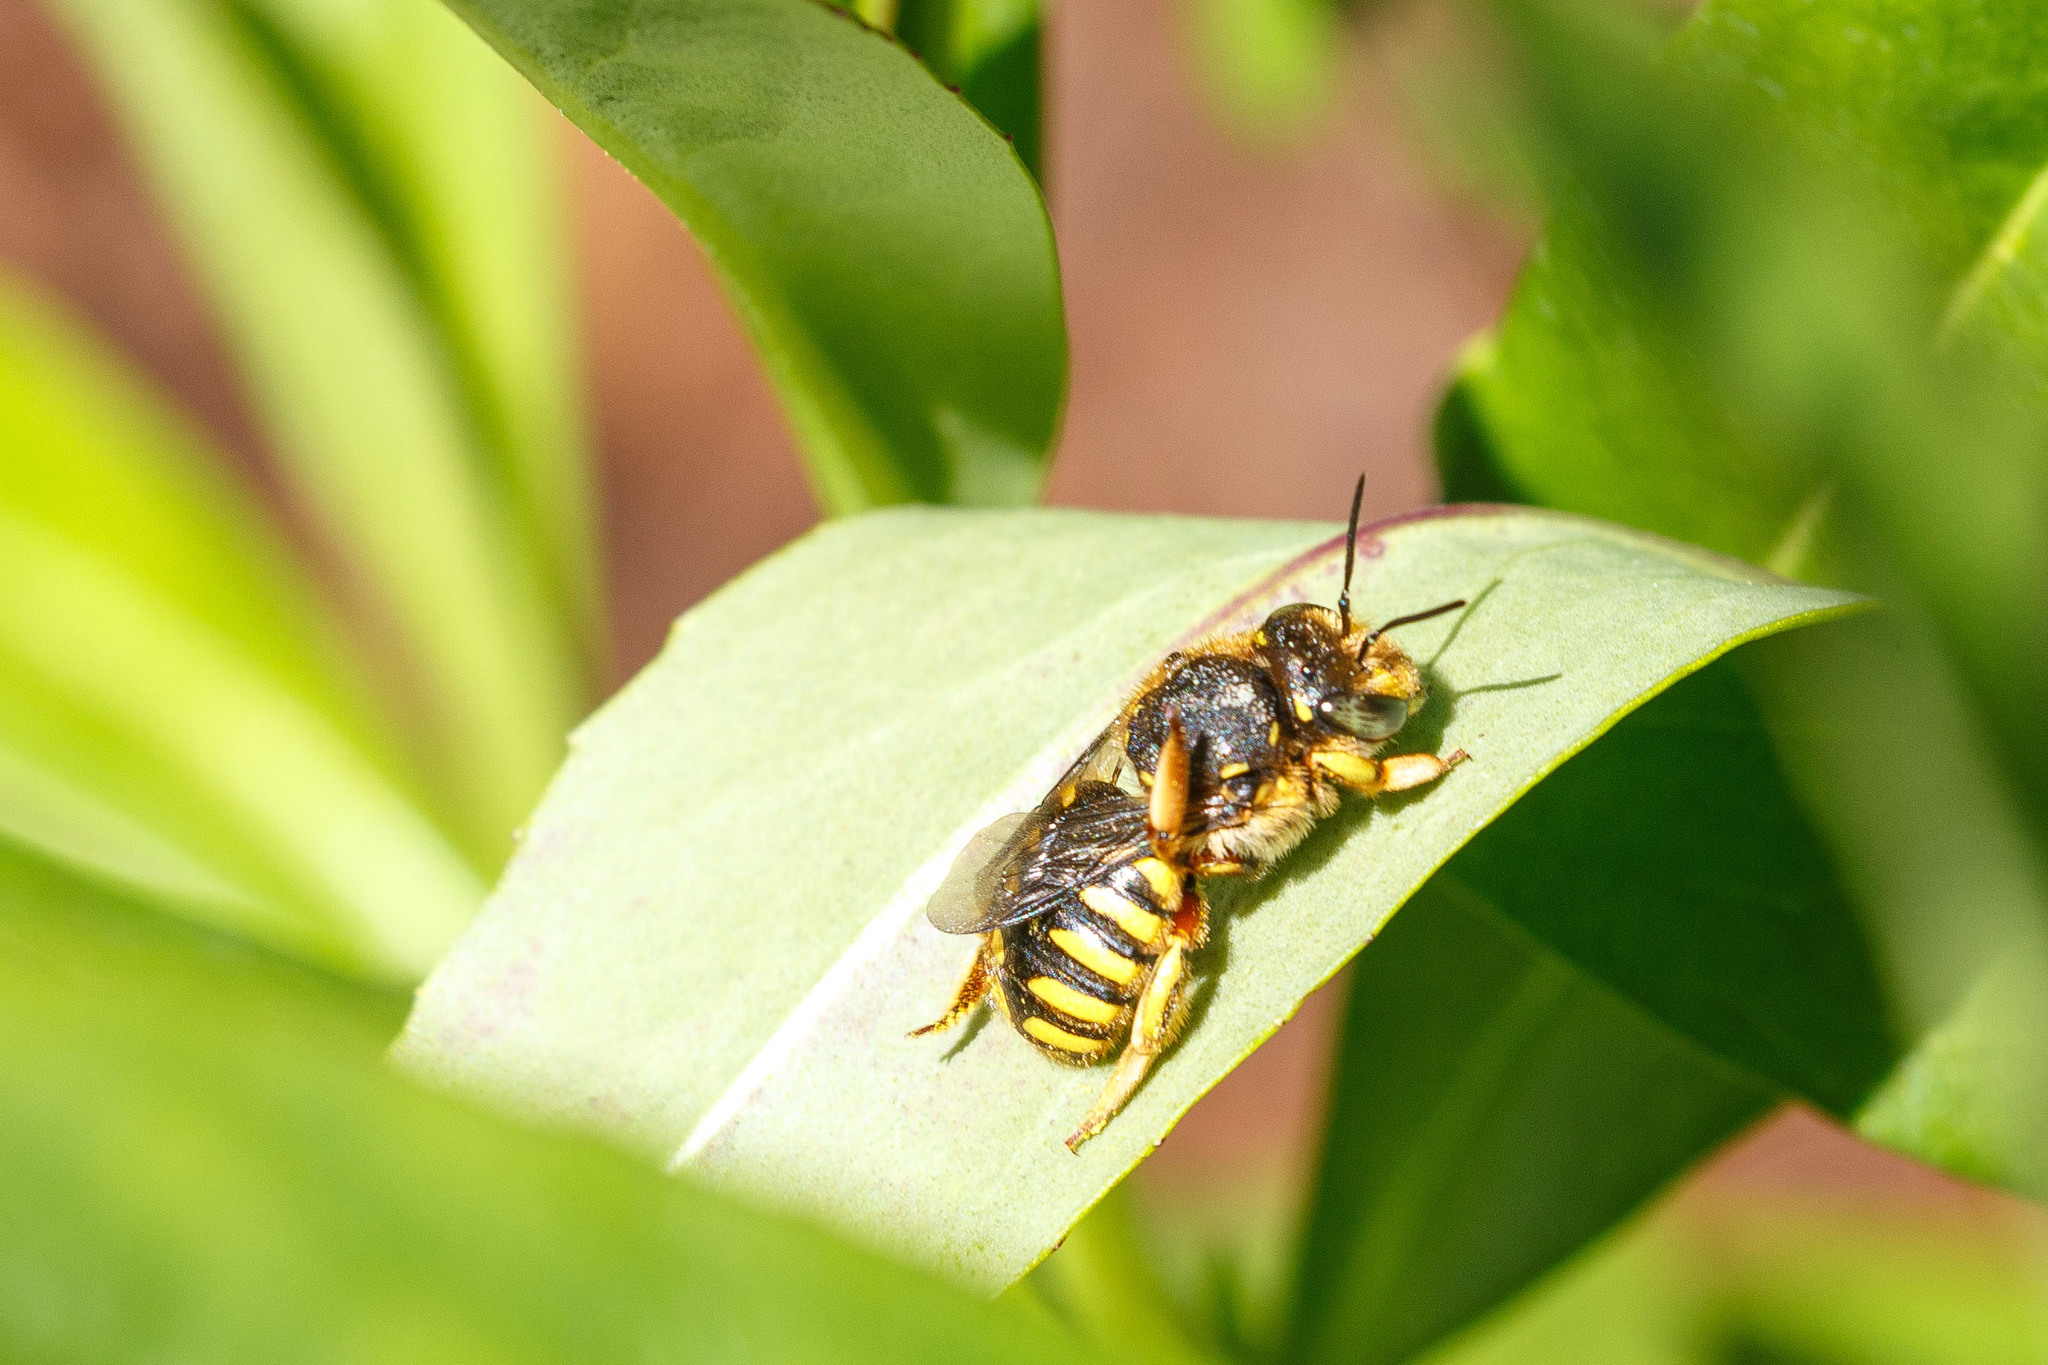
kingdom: Animalia
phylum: Arthropoda
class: Insecta
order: Hymenoptera
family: Megachilidae
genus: Anthidium
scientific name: Anthidium manicatum
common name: Wool carder bee
